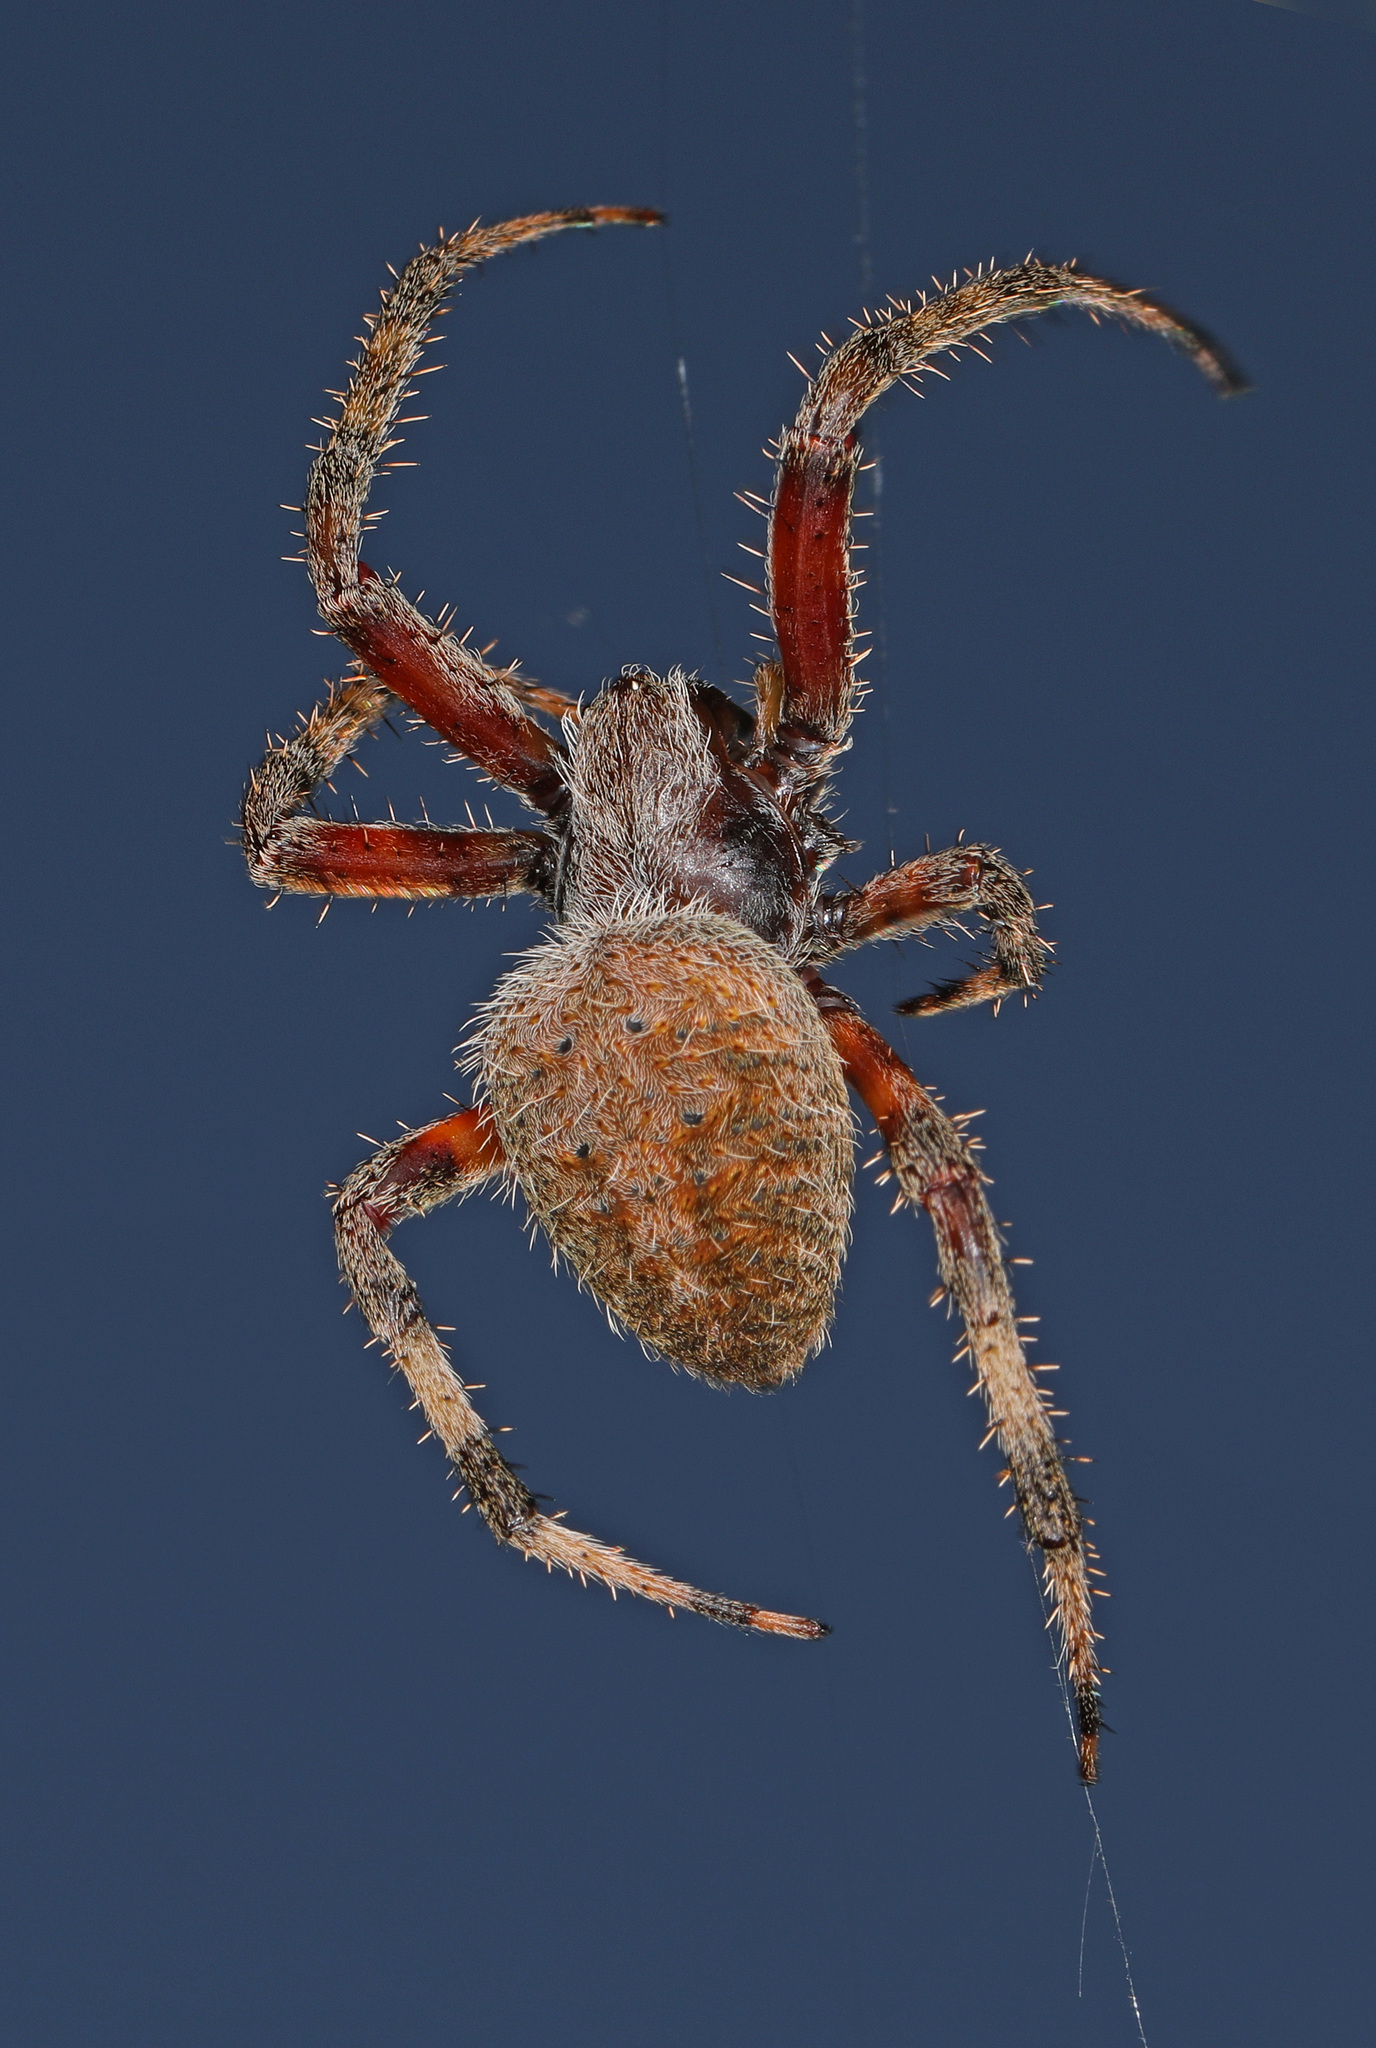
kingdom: Animalia
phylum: Arthropoda
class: Arachnida
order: Araneae
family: Araneidae
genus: Neoscona
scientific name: Neoscona crucifera
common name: Spotted orbweaver
